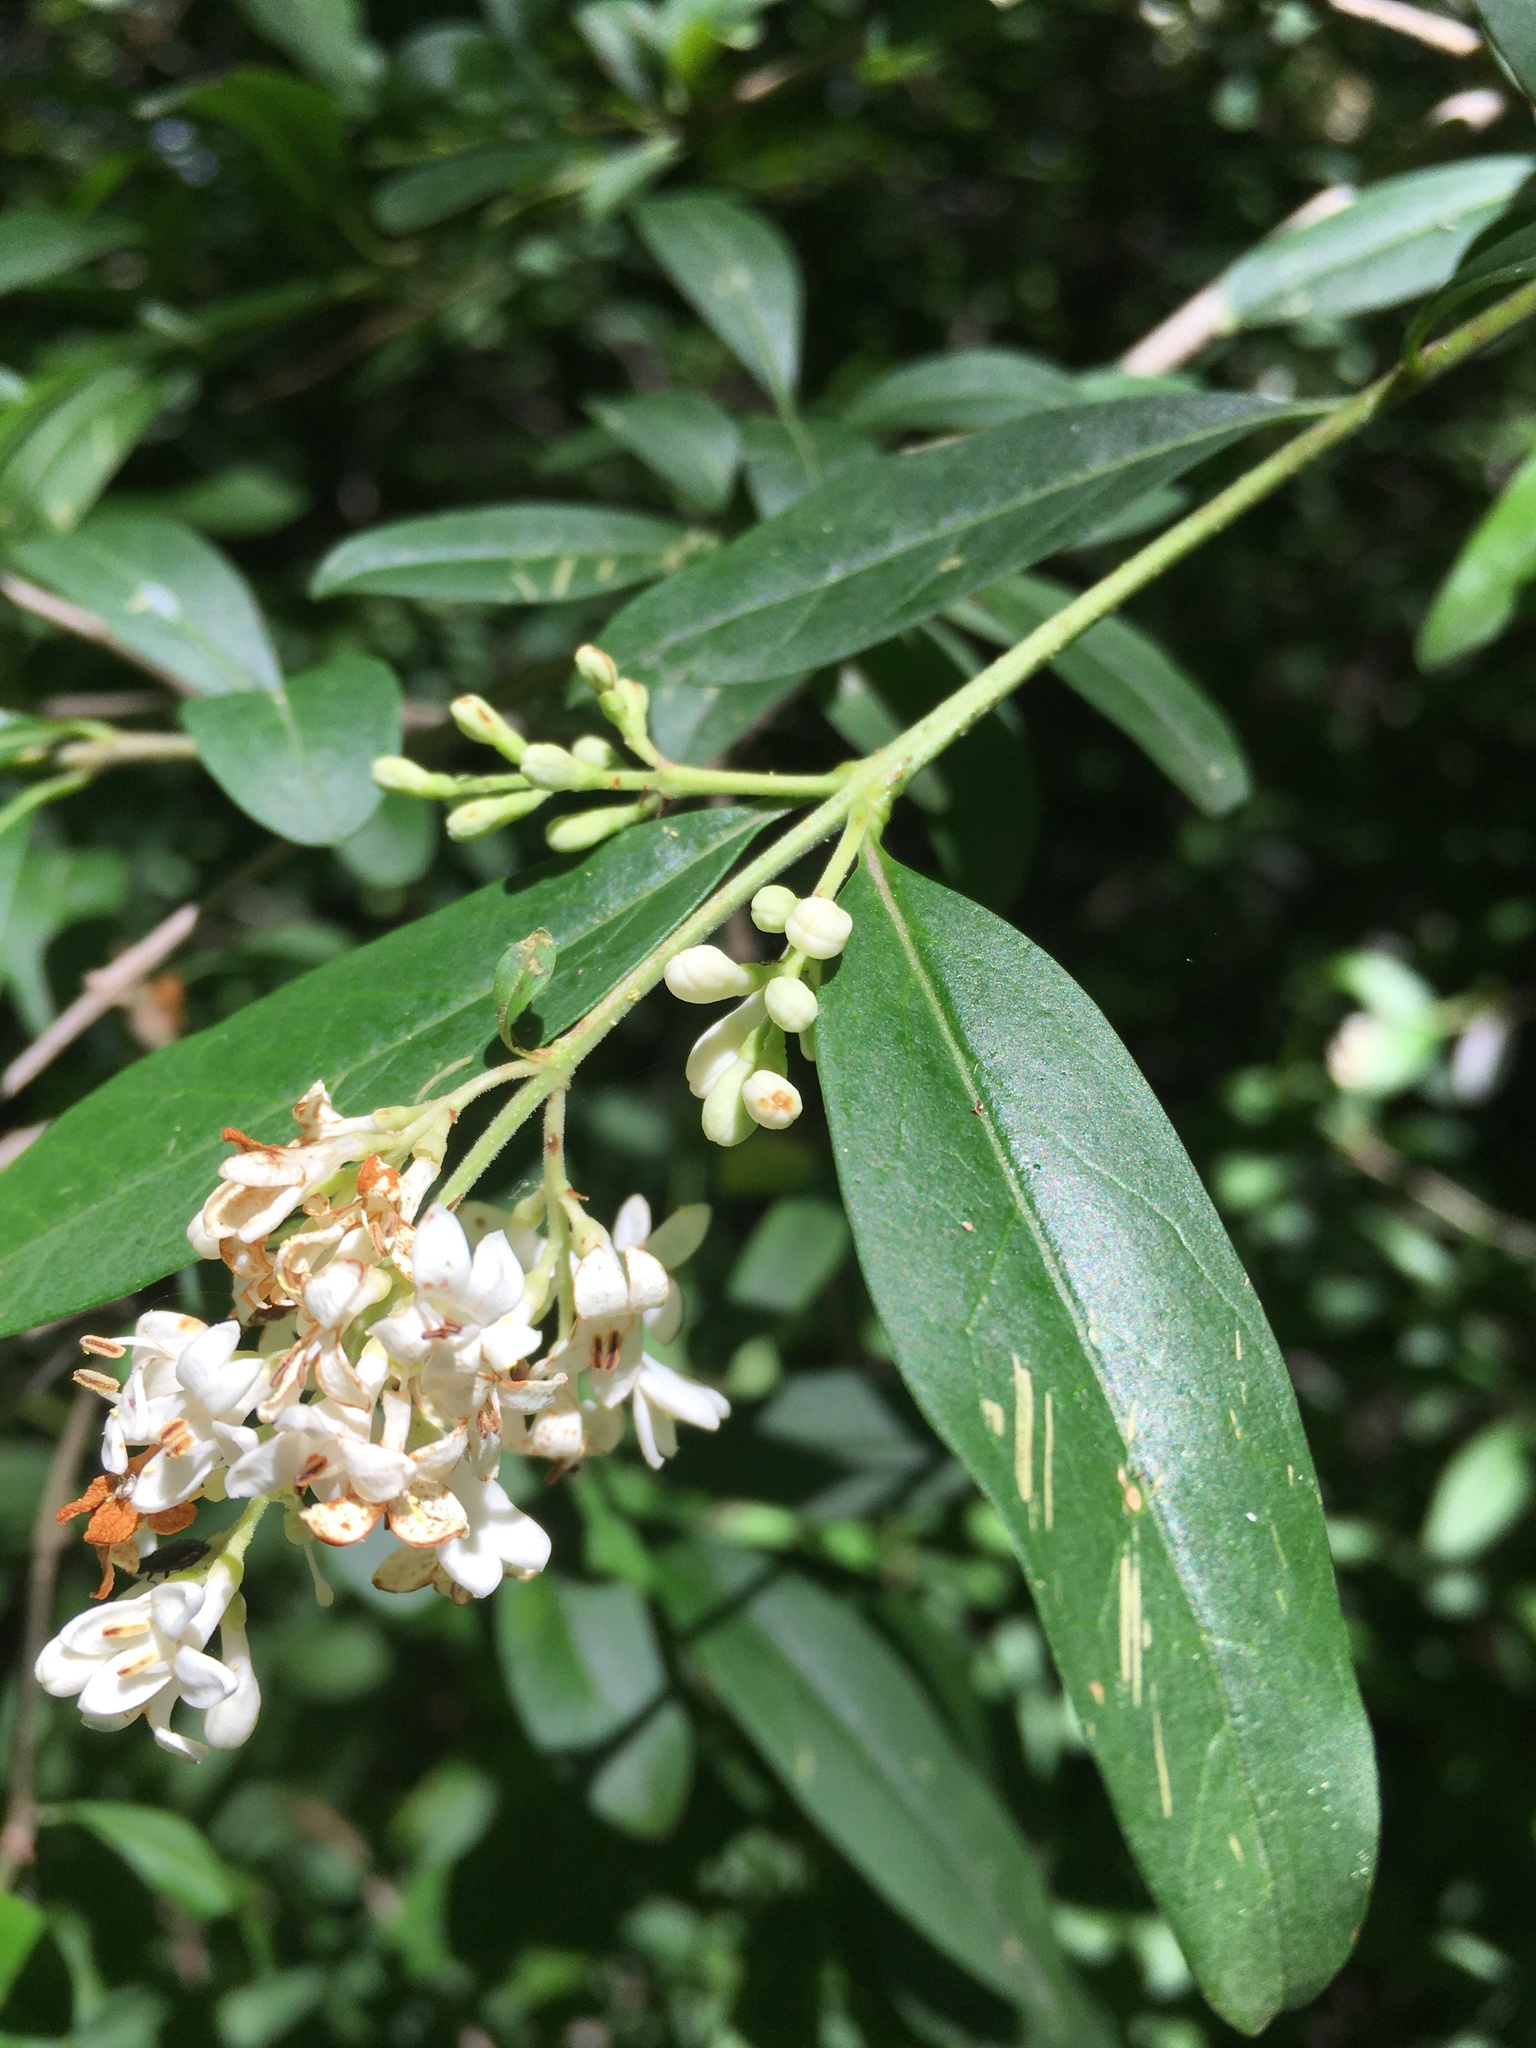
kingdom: Plantae
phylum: Tracheophyta
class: Magnoliopsida
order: Lamiales
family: Oleaceae
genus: Ligustrum
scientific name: Ligustrum vulgare
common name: Wild privet
